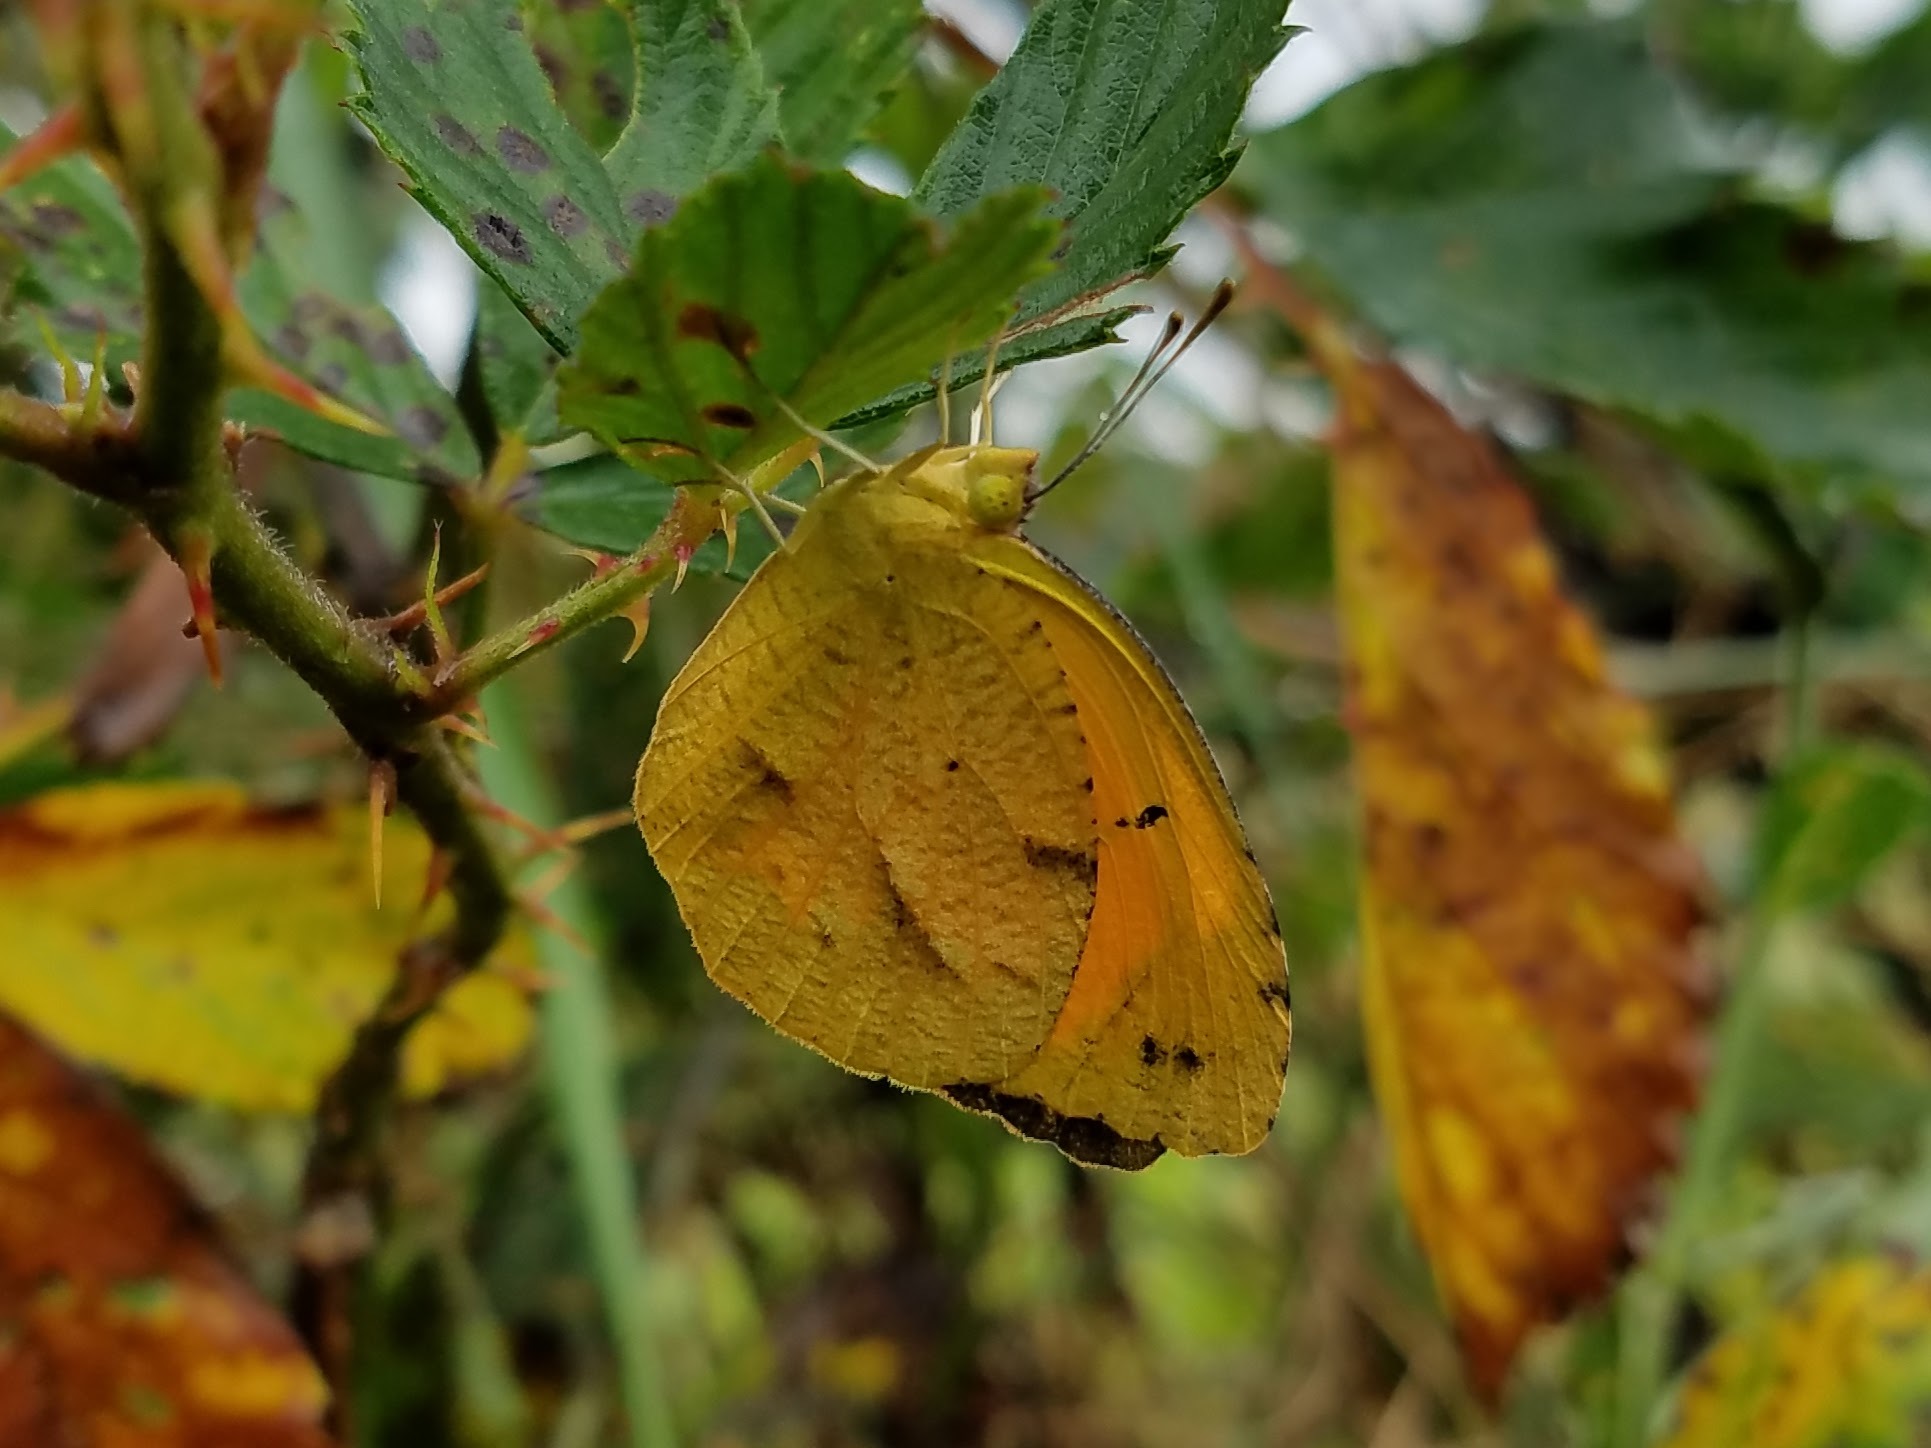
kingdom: Animalia
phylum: Arthropoda
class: Insecta
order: Lepidoptera
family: Pieridae
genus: Abaeis
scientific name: Abaeis nicippe
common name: Sleepy orange
